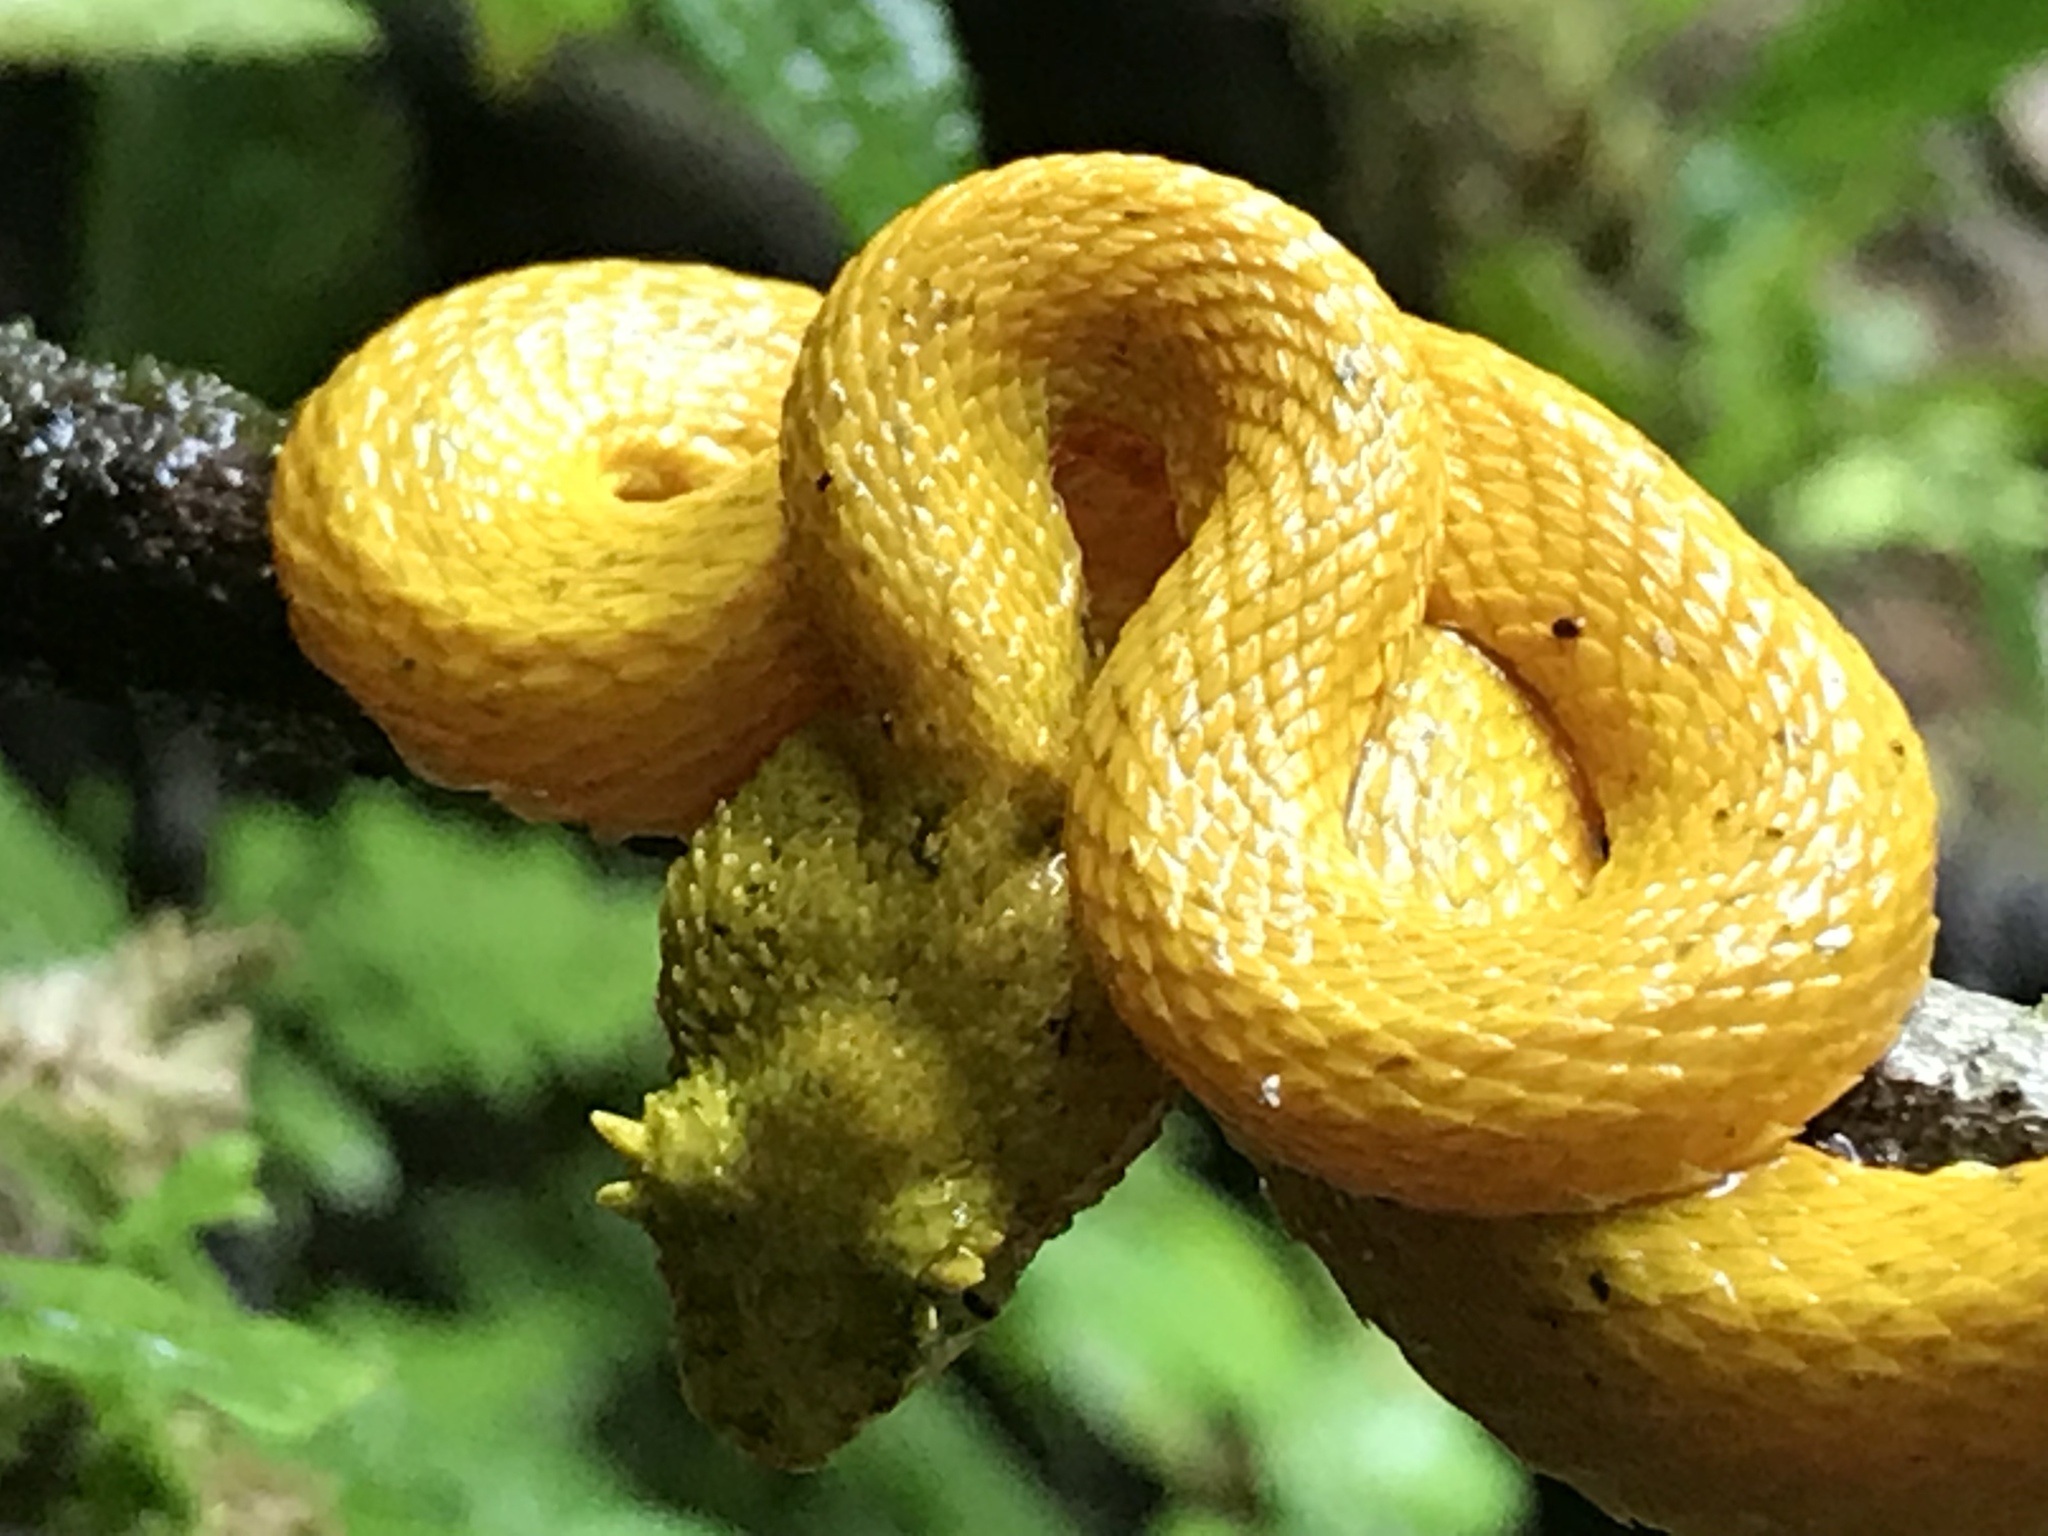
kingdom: Animalia
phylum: Chordata
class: Squamata
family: Viperidae
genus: Bothriechis
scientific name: Bothriechis schlegelii
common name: Eyelash viper
